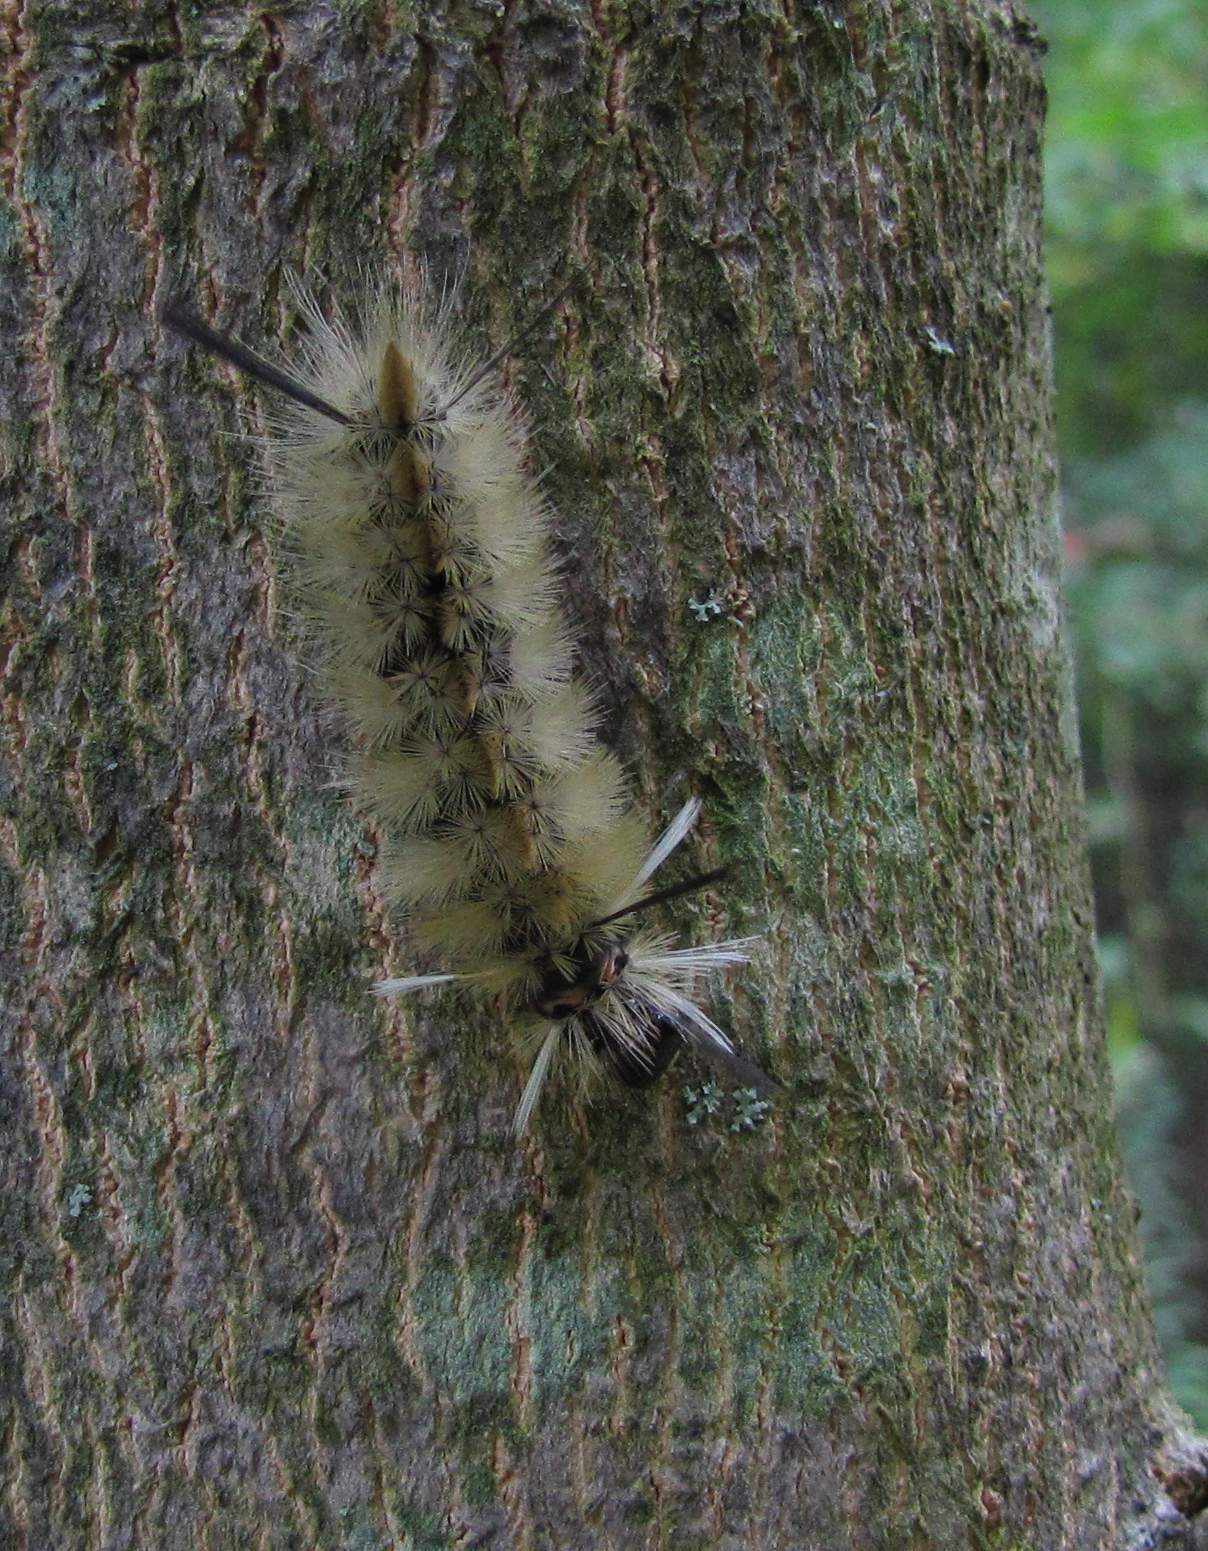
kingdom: Animalia
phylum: Arthropoda
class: Insecta
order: Lepidoptera
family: Erebidae
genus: Halysidota
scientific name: Halysidota tessellaris
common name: Banded tussock moth
